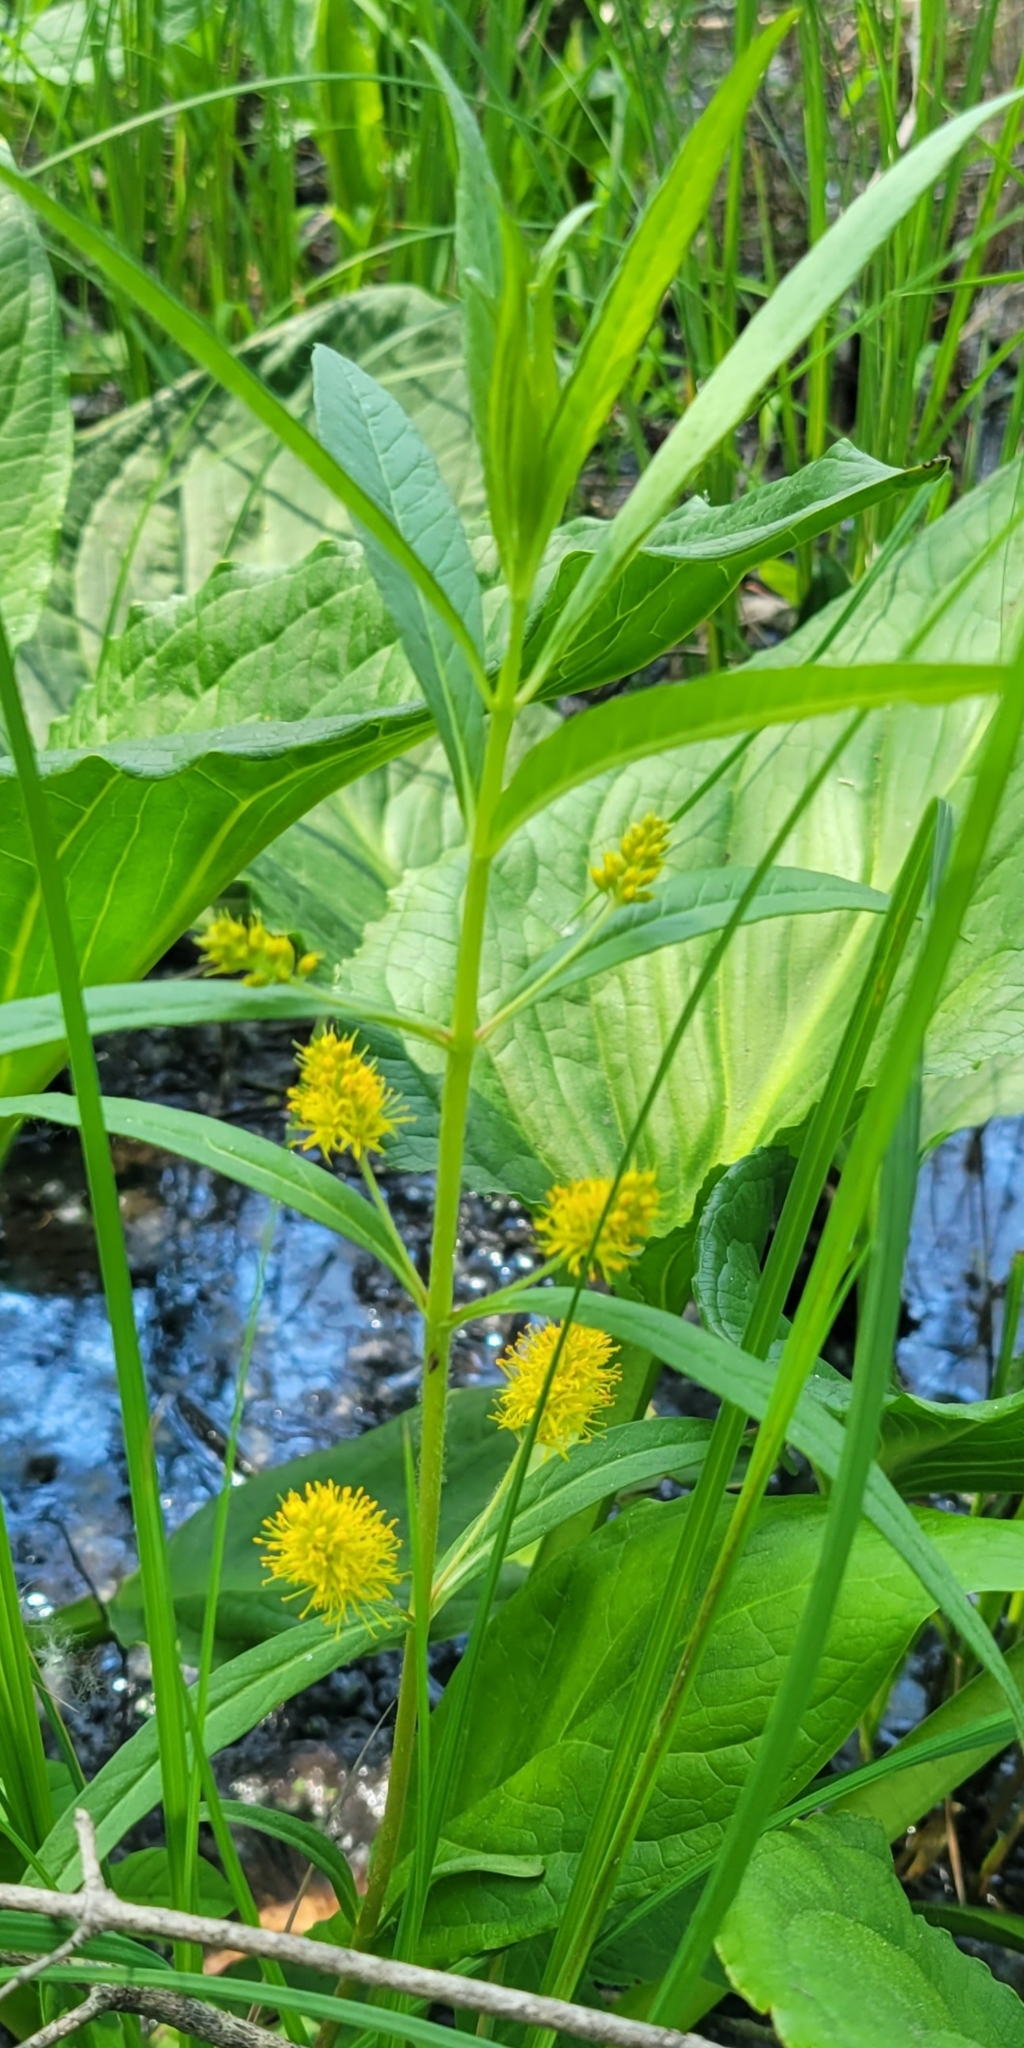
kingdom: Plantae
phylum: Tracheophyta
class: Magnoliopsida
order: Ericales
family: Primulaceae
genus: Lysimachia
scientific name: Lysimachia thyrsiflora
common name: Tufted loosestrife
